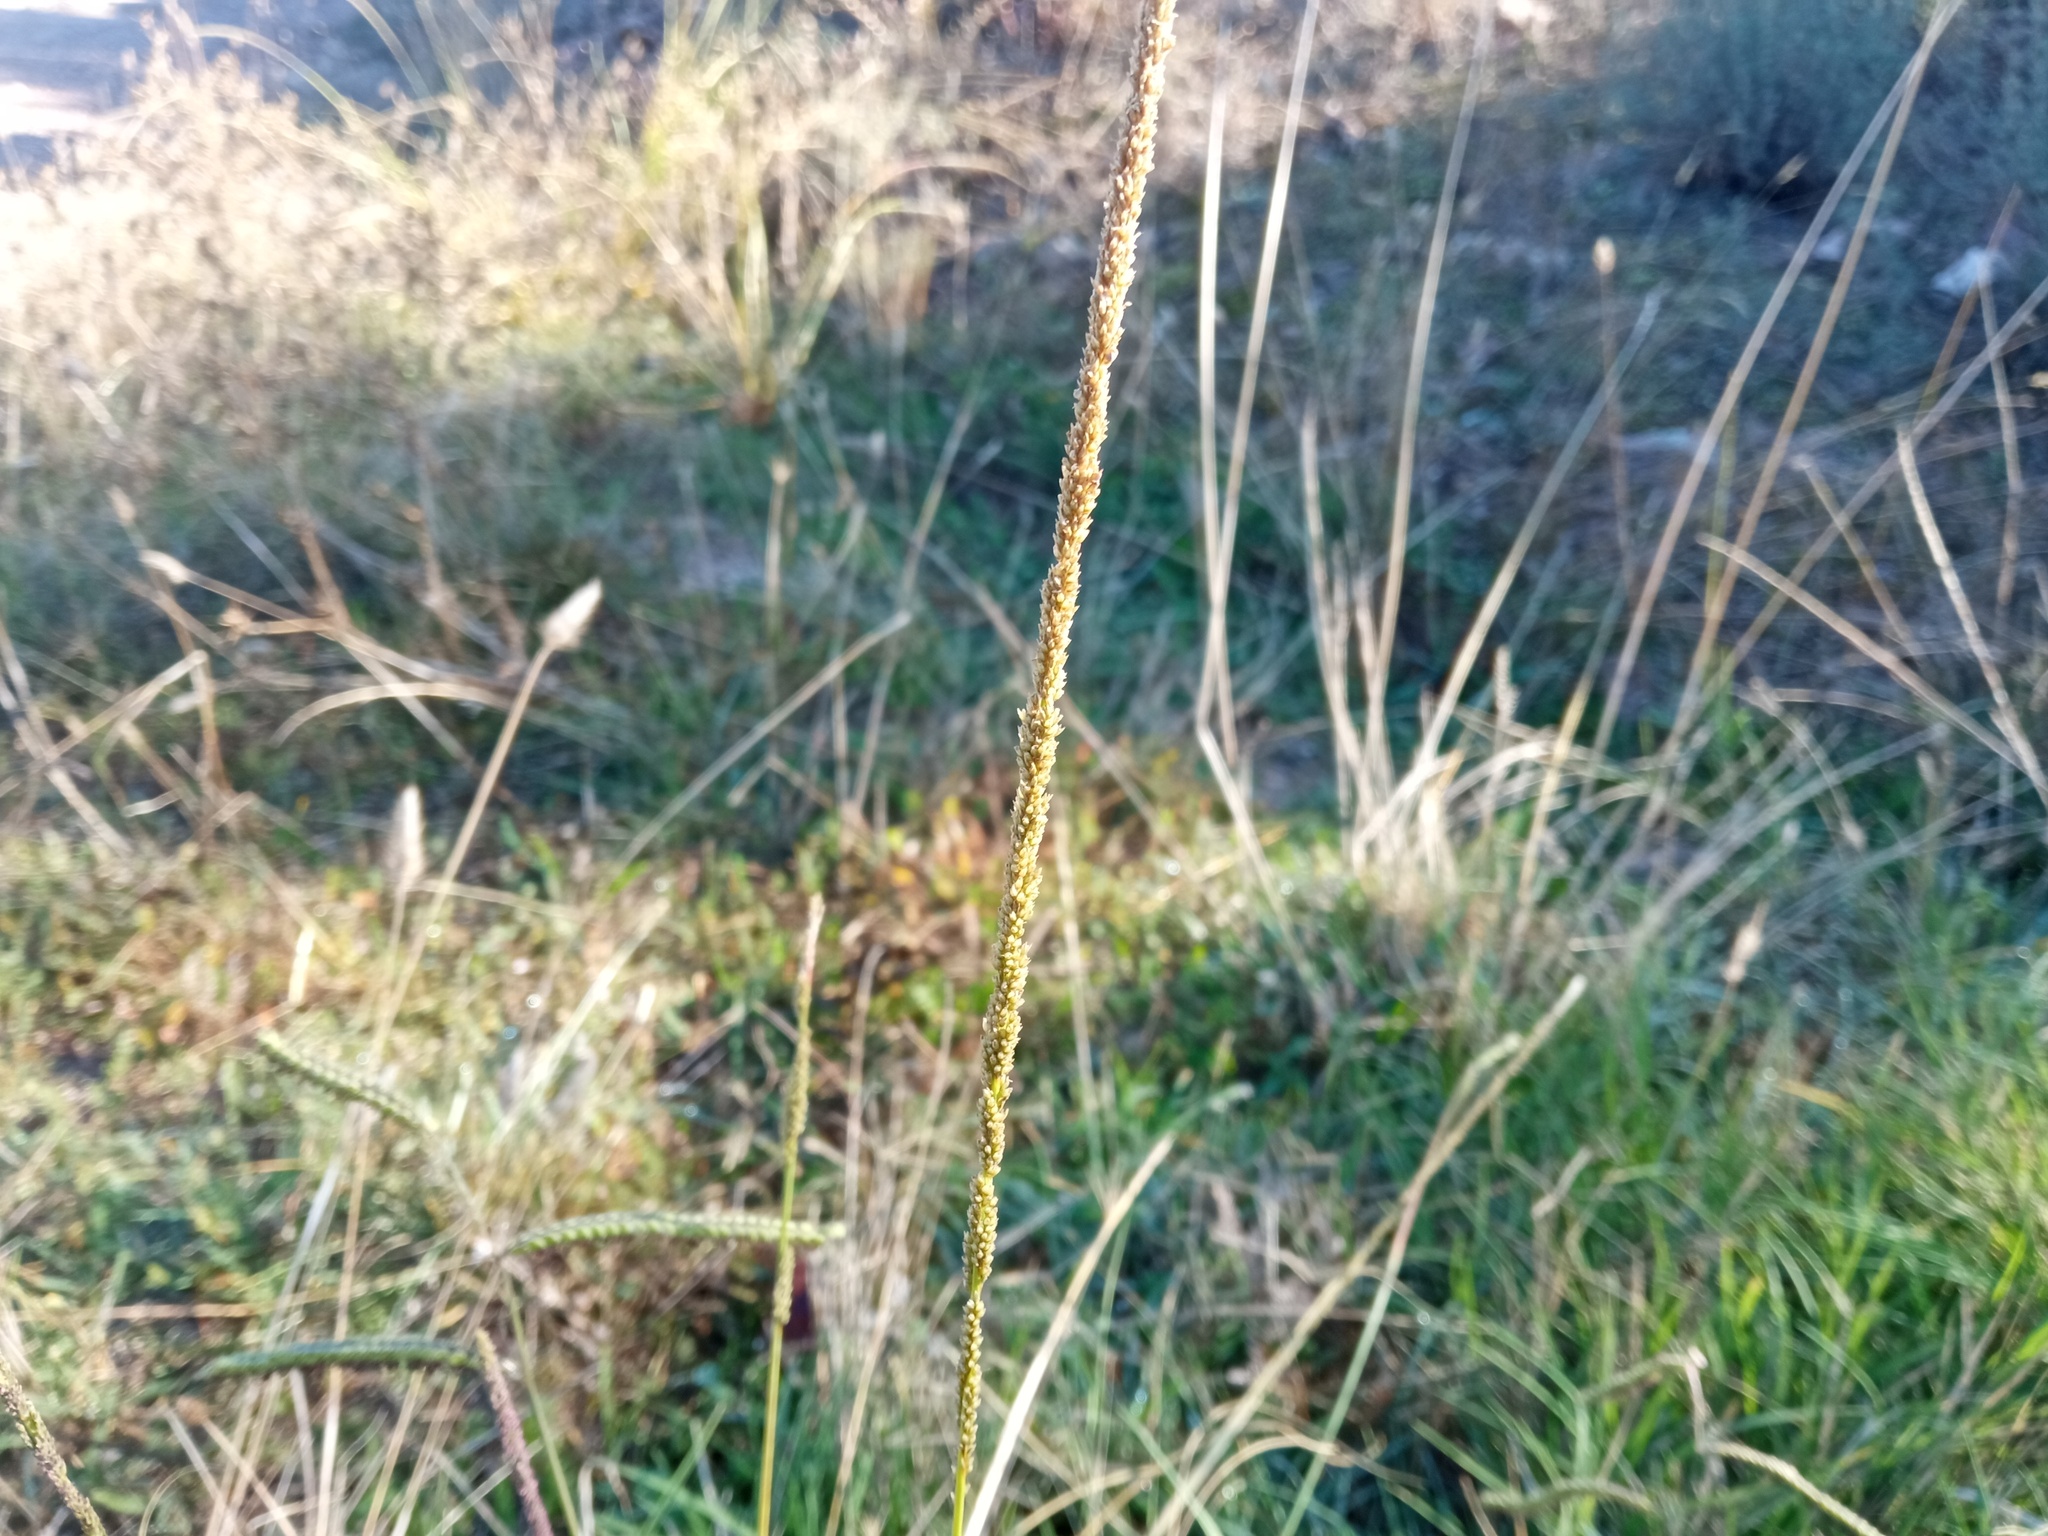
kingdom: Plantae
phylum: Tracheophyta
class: Liliopsida
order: Poales
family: Poaceae
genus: Sporobolus
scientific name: Sporobolus indicus
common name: Smut grass
